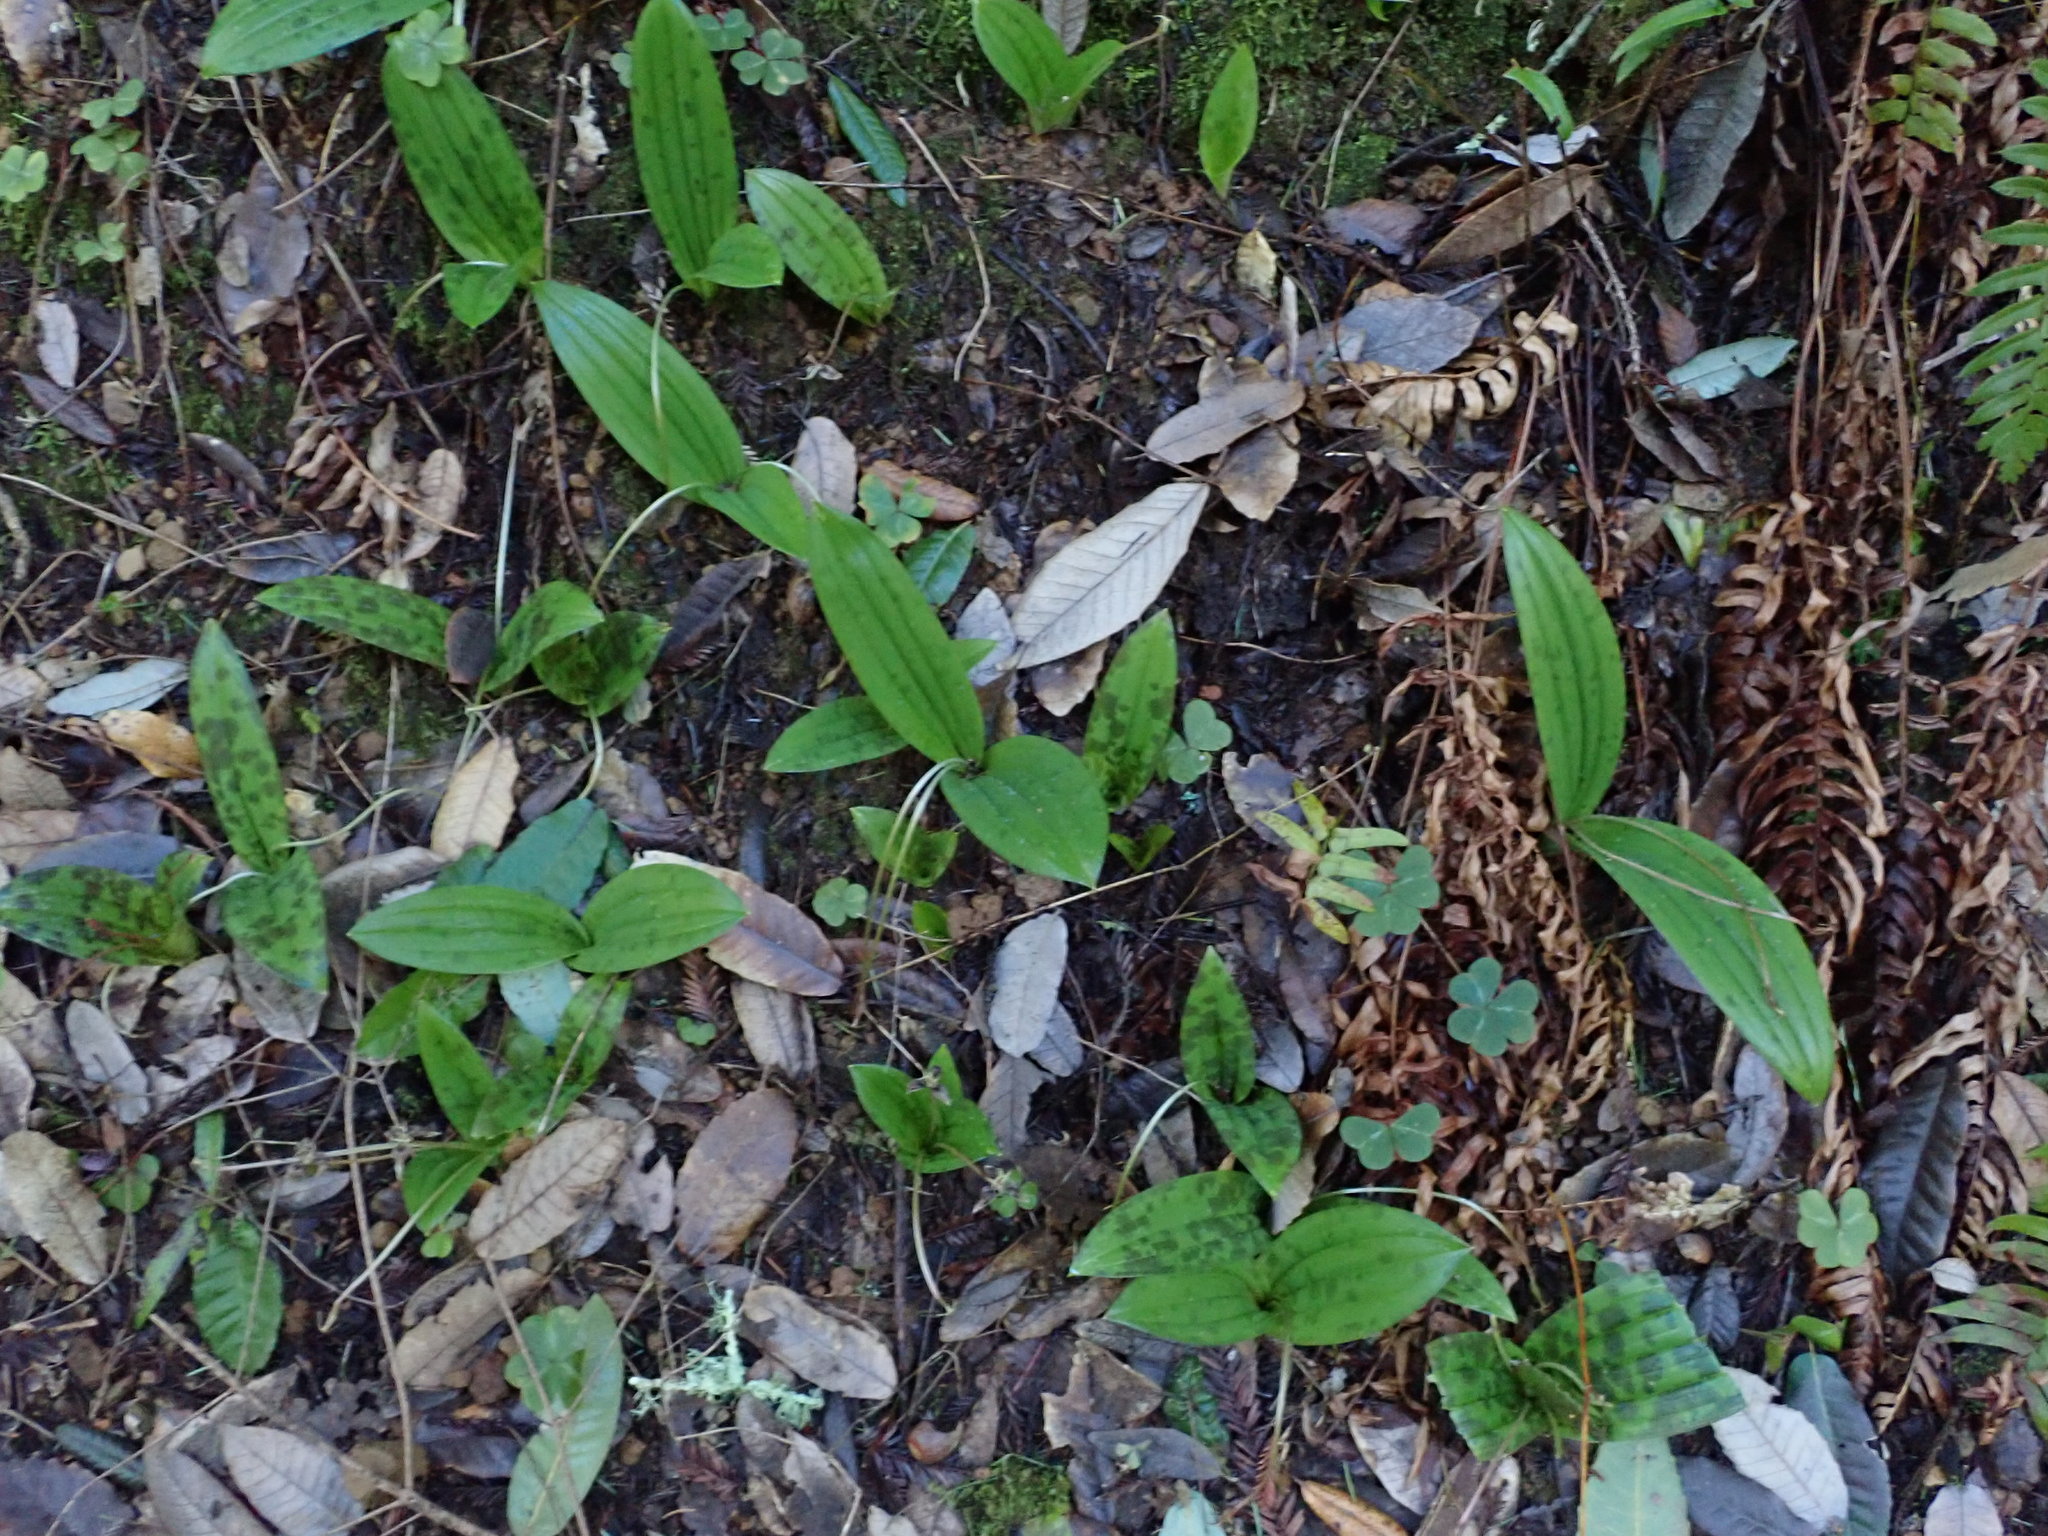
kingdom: Plantae
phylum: Tracheophyta
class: Liliopsida
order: Liliales
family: Liliaceae
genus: Scoliopus
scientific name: Scoliopus bigelovii
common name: Foetid adder's-tongue
